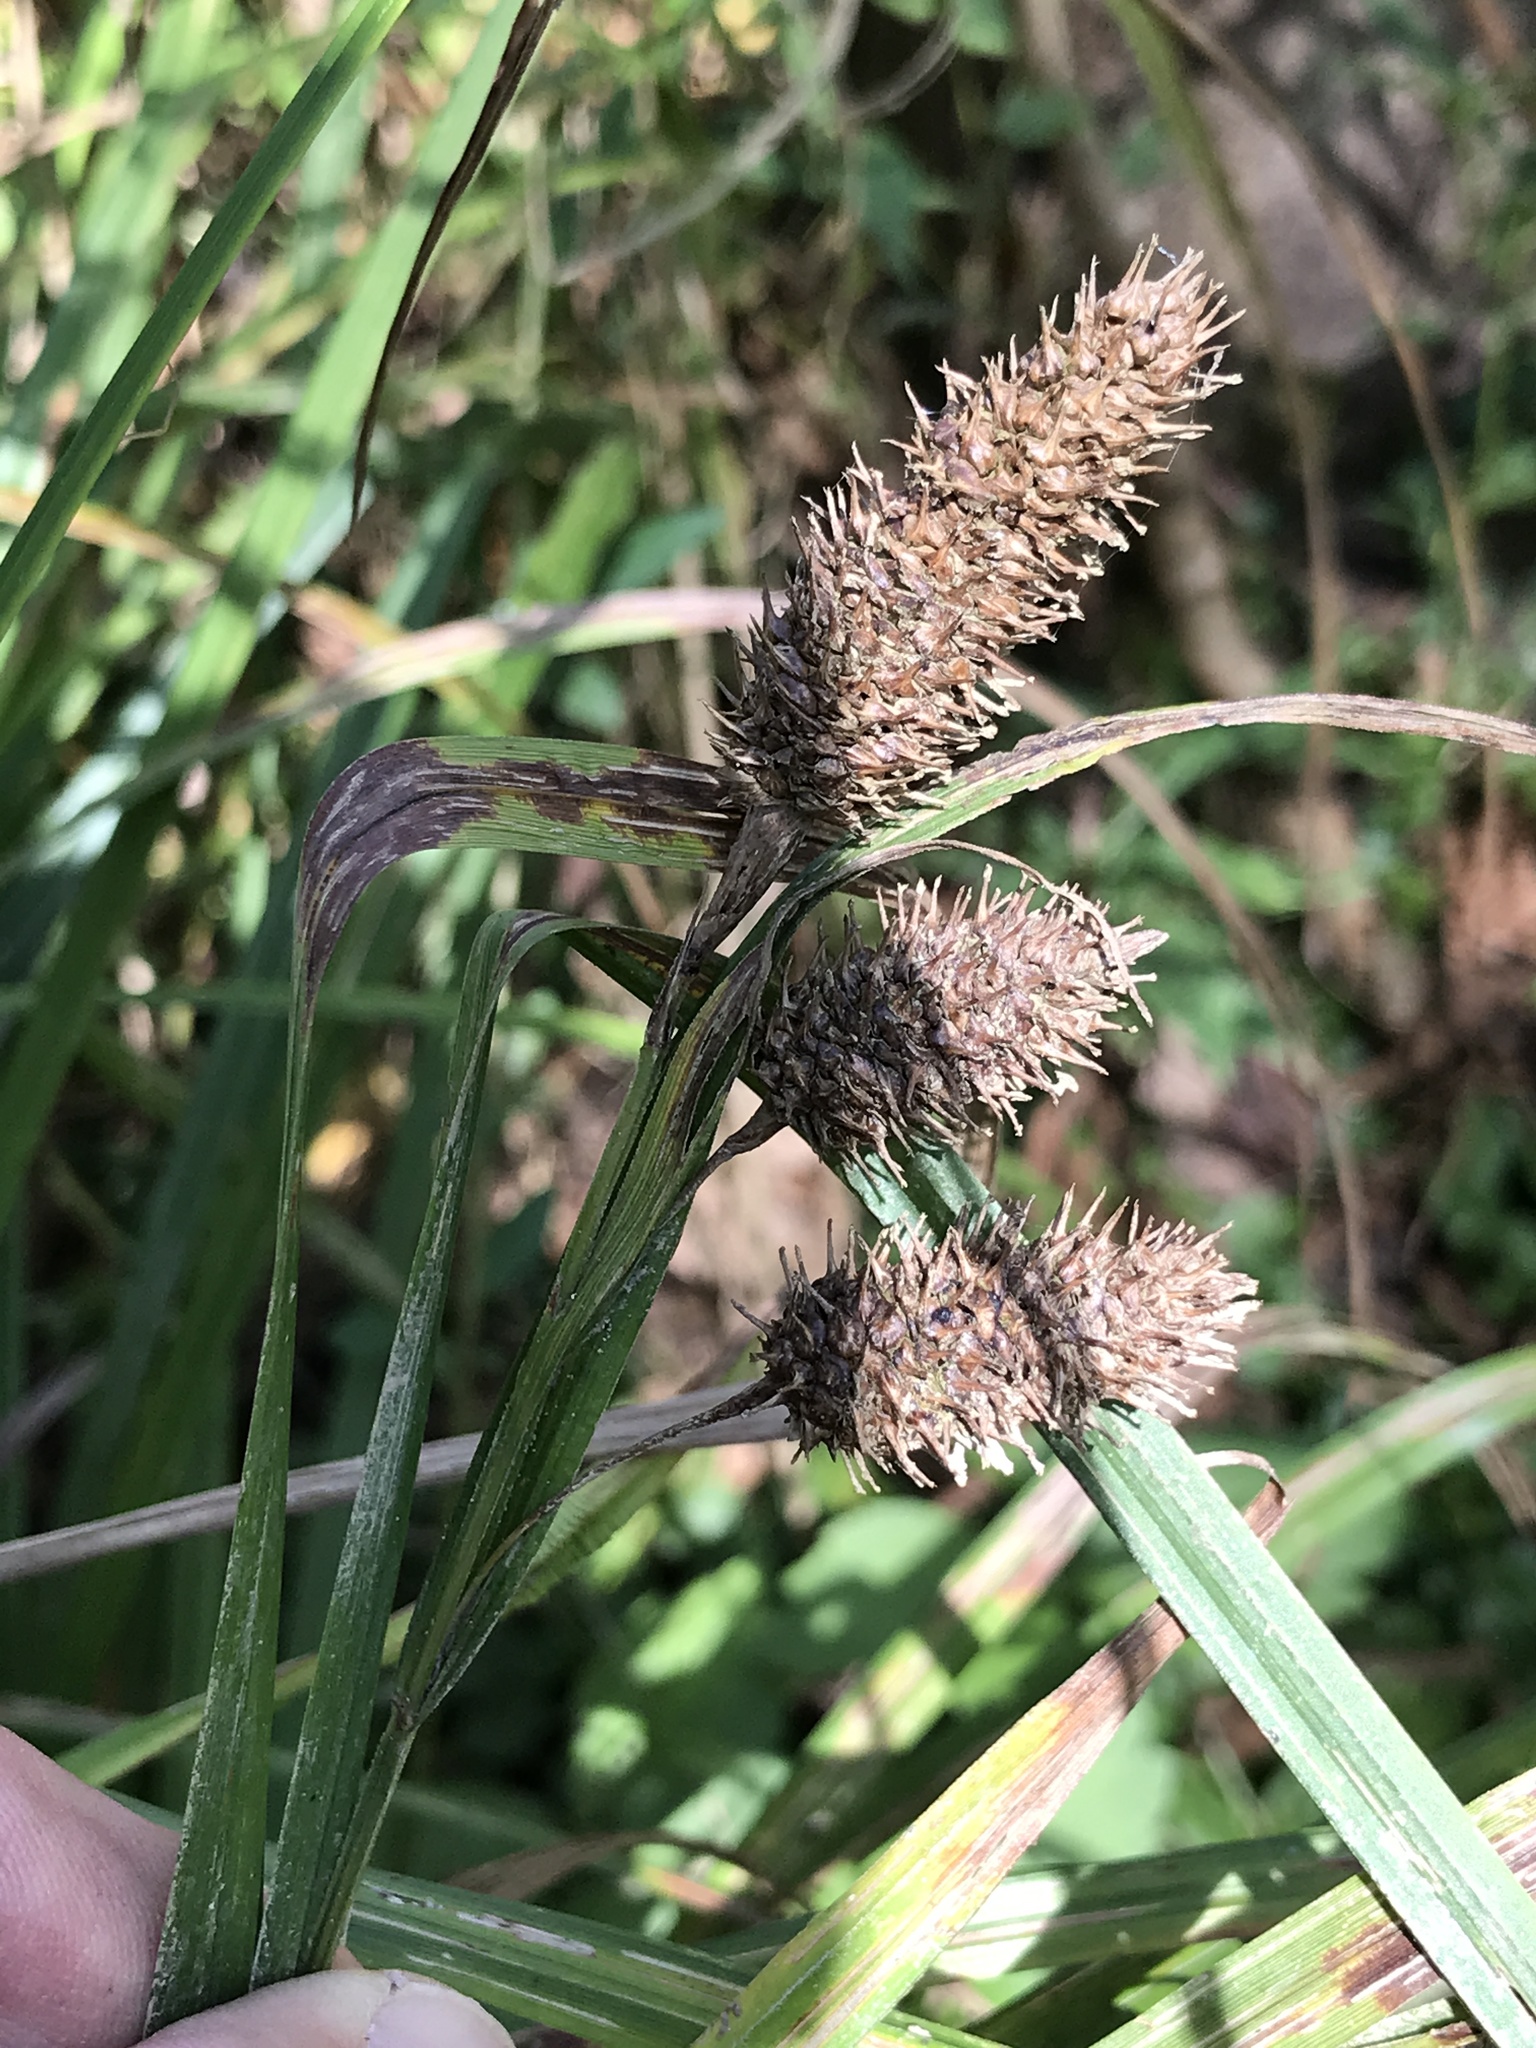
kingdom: Plantae
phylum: Tracheophyta
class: Liliopsida
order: Poales
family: Cyperaceae
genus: Carex
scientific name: Carex typhina
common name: Cattail sedge
